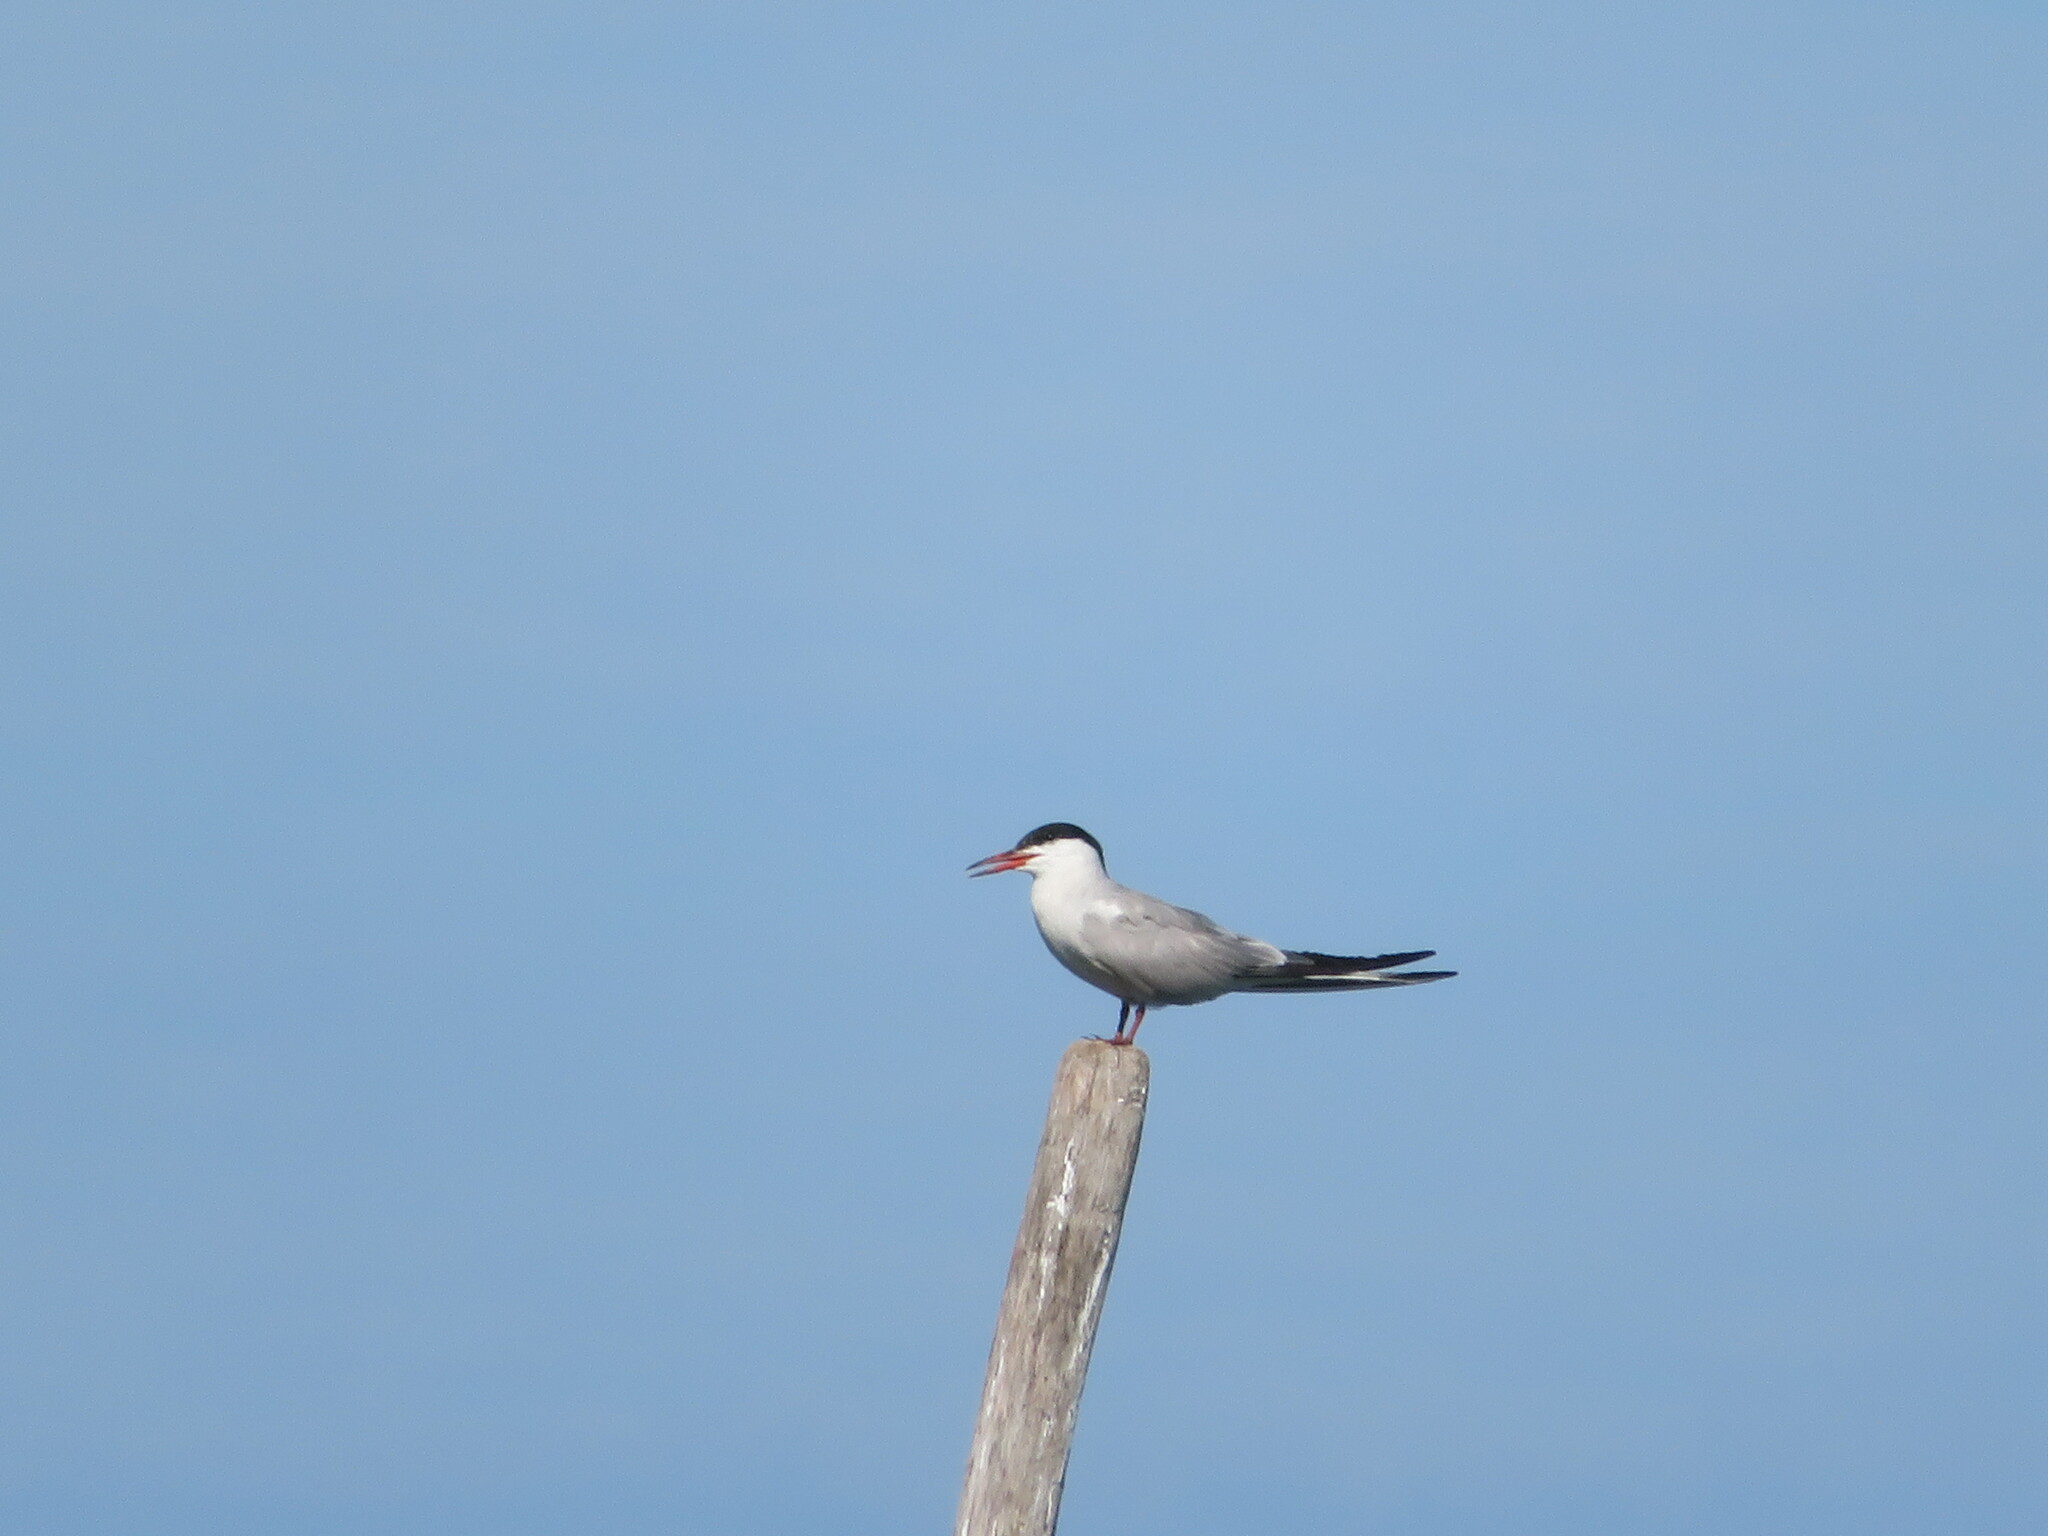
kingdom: Animalia
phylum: Chordata
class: Aves
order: Charadriiformes
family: Laridae
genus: Sterna
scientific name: Sterna hirundo
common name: Common tern
